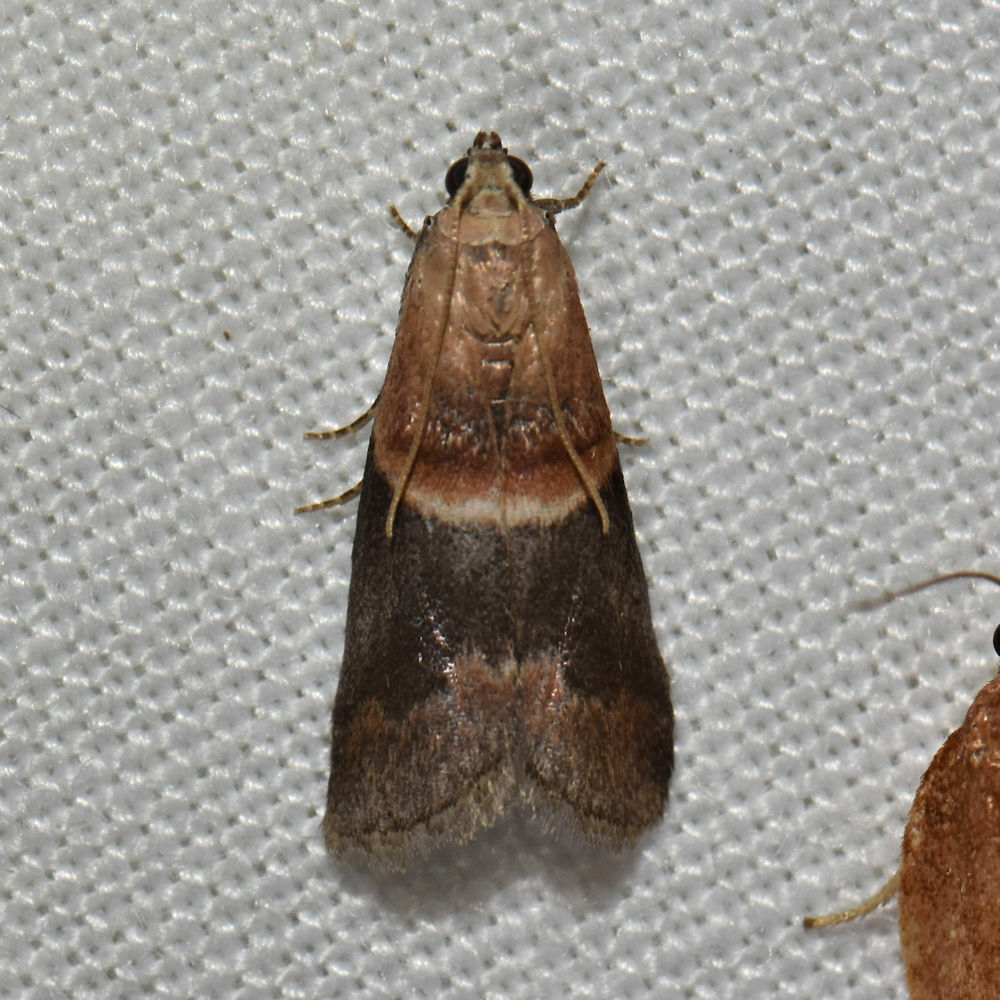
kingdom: Animalia
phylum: Arthropoda
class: Insecta
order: Lepidoptera
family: Pyralidae
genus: Eulogia
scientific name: Eulogia ochrifrontella
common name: Broad-banded eulogia moth
